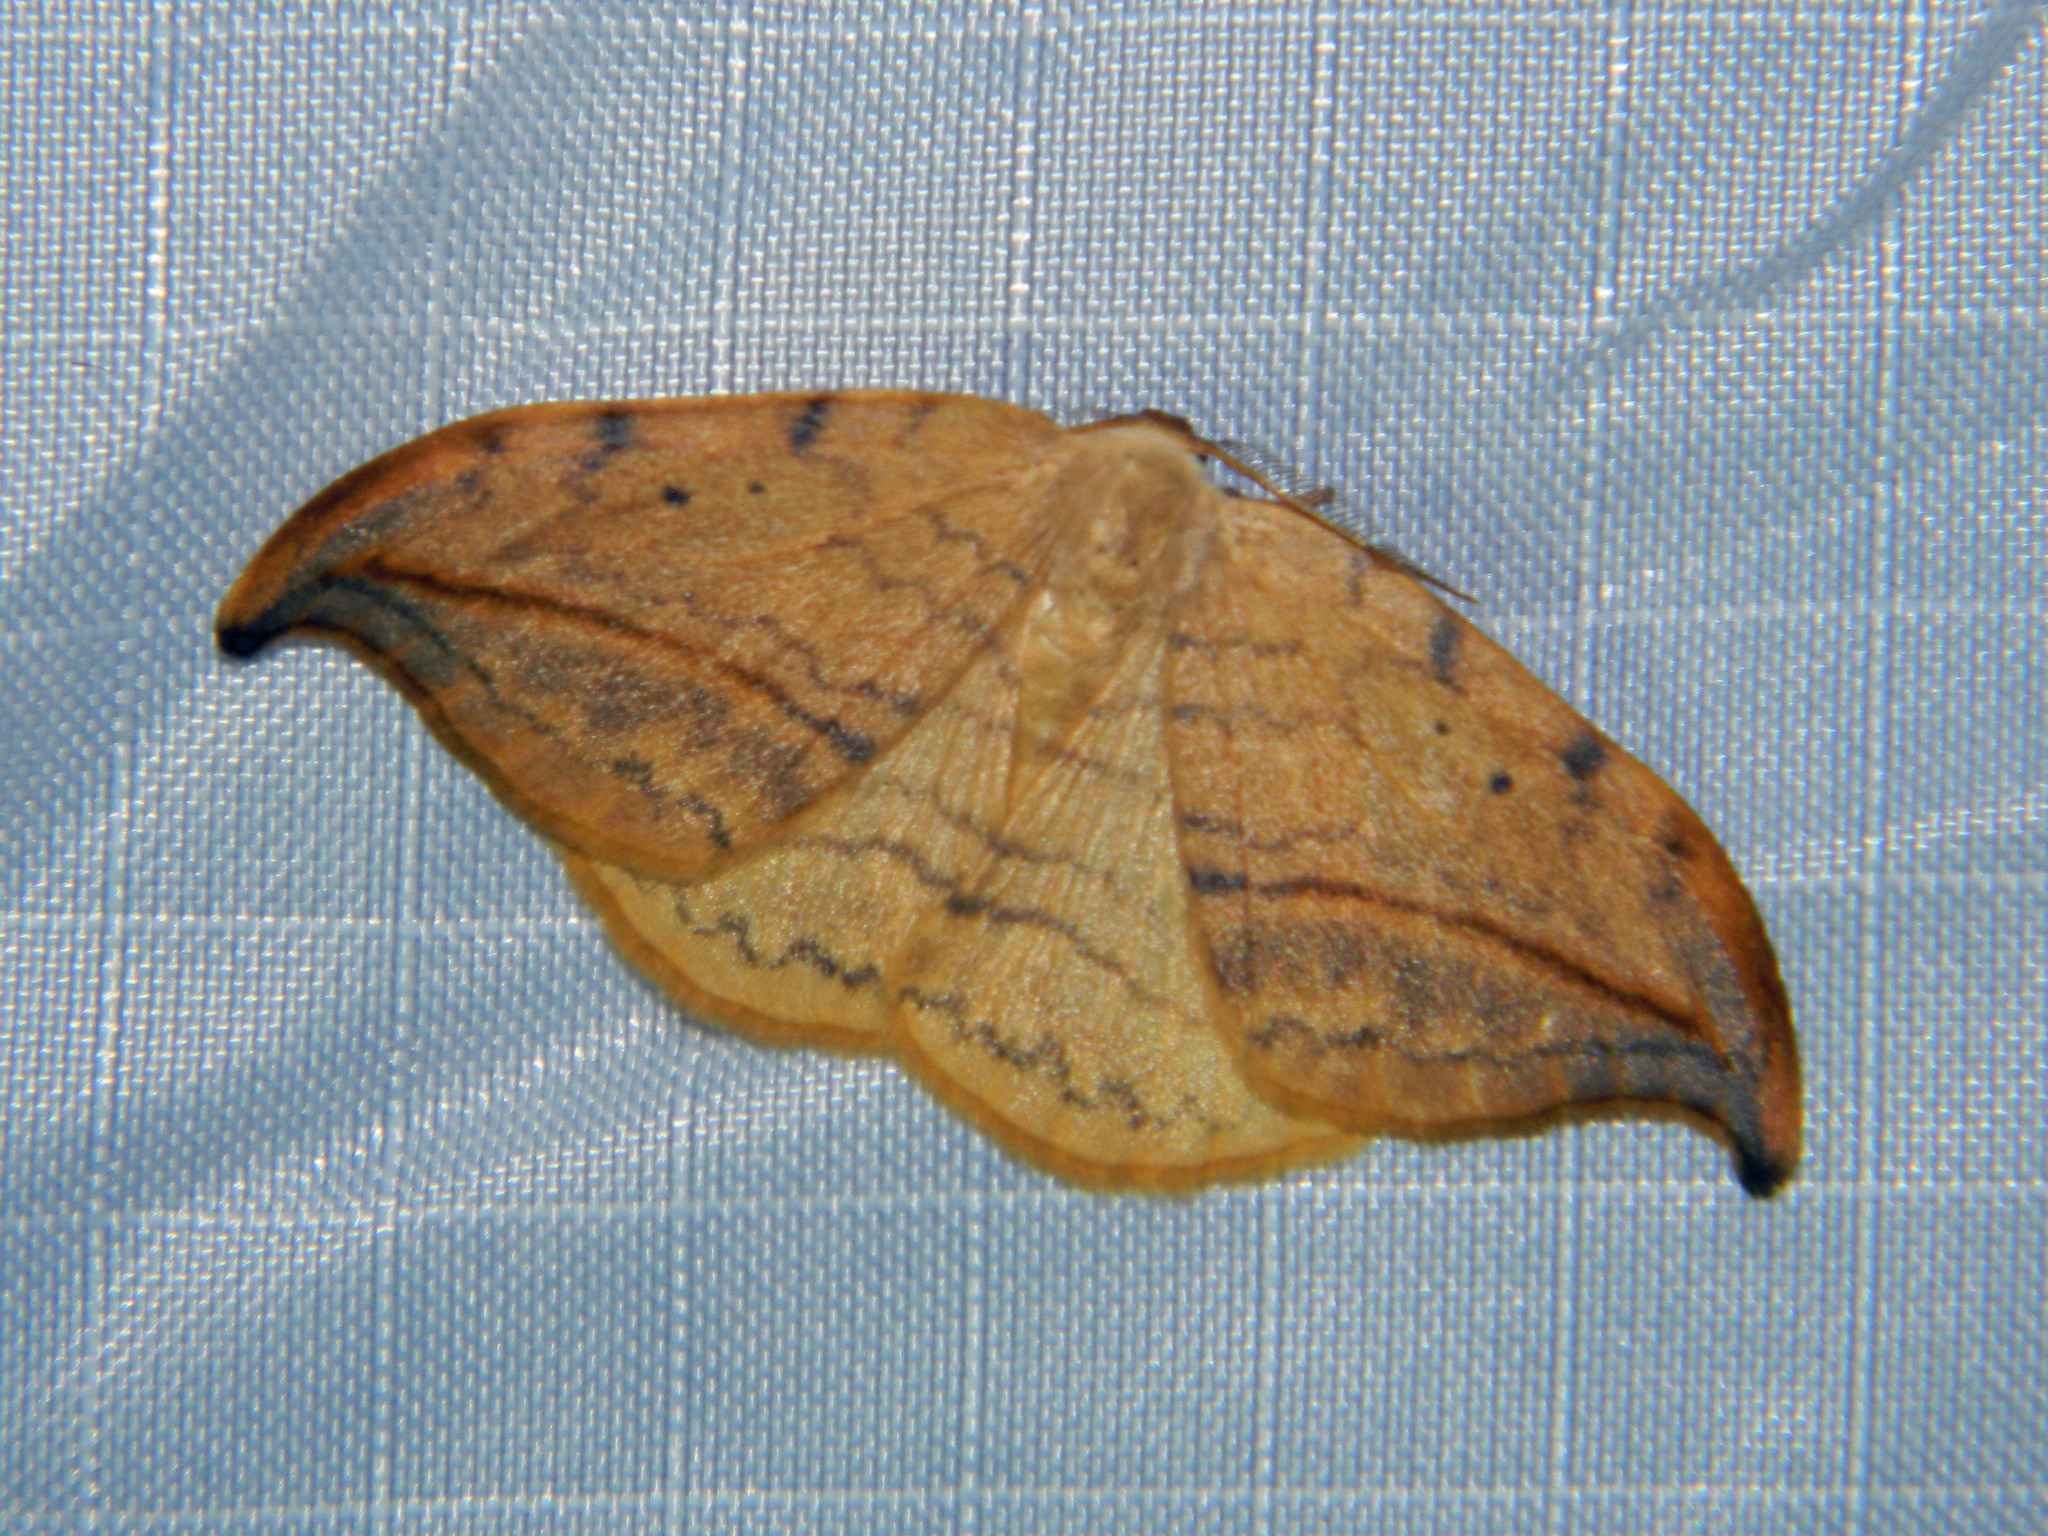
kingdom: Animalia
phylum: Arthropoda
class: Insecta
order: Lepidoptera
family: Drepanidae
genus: Drepana
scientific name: Drepana arcuata
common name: Arched hooktip moth
